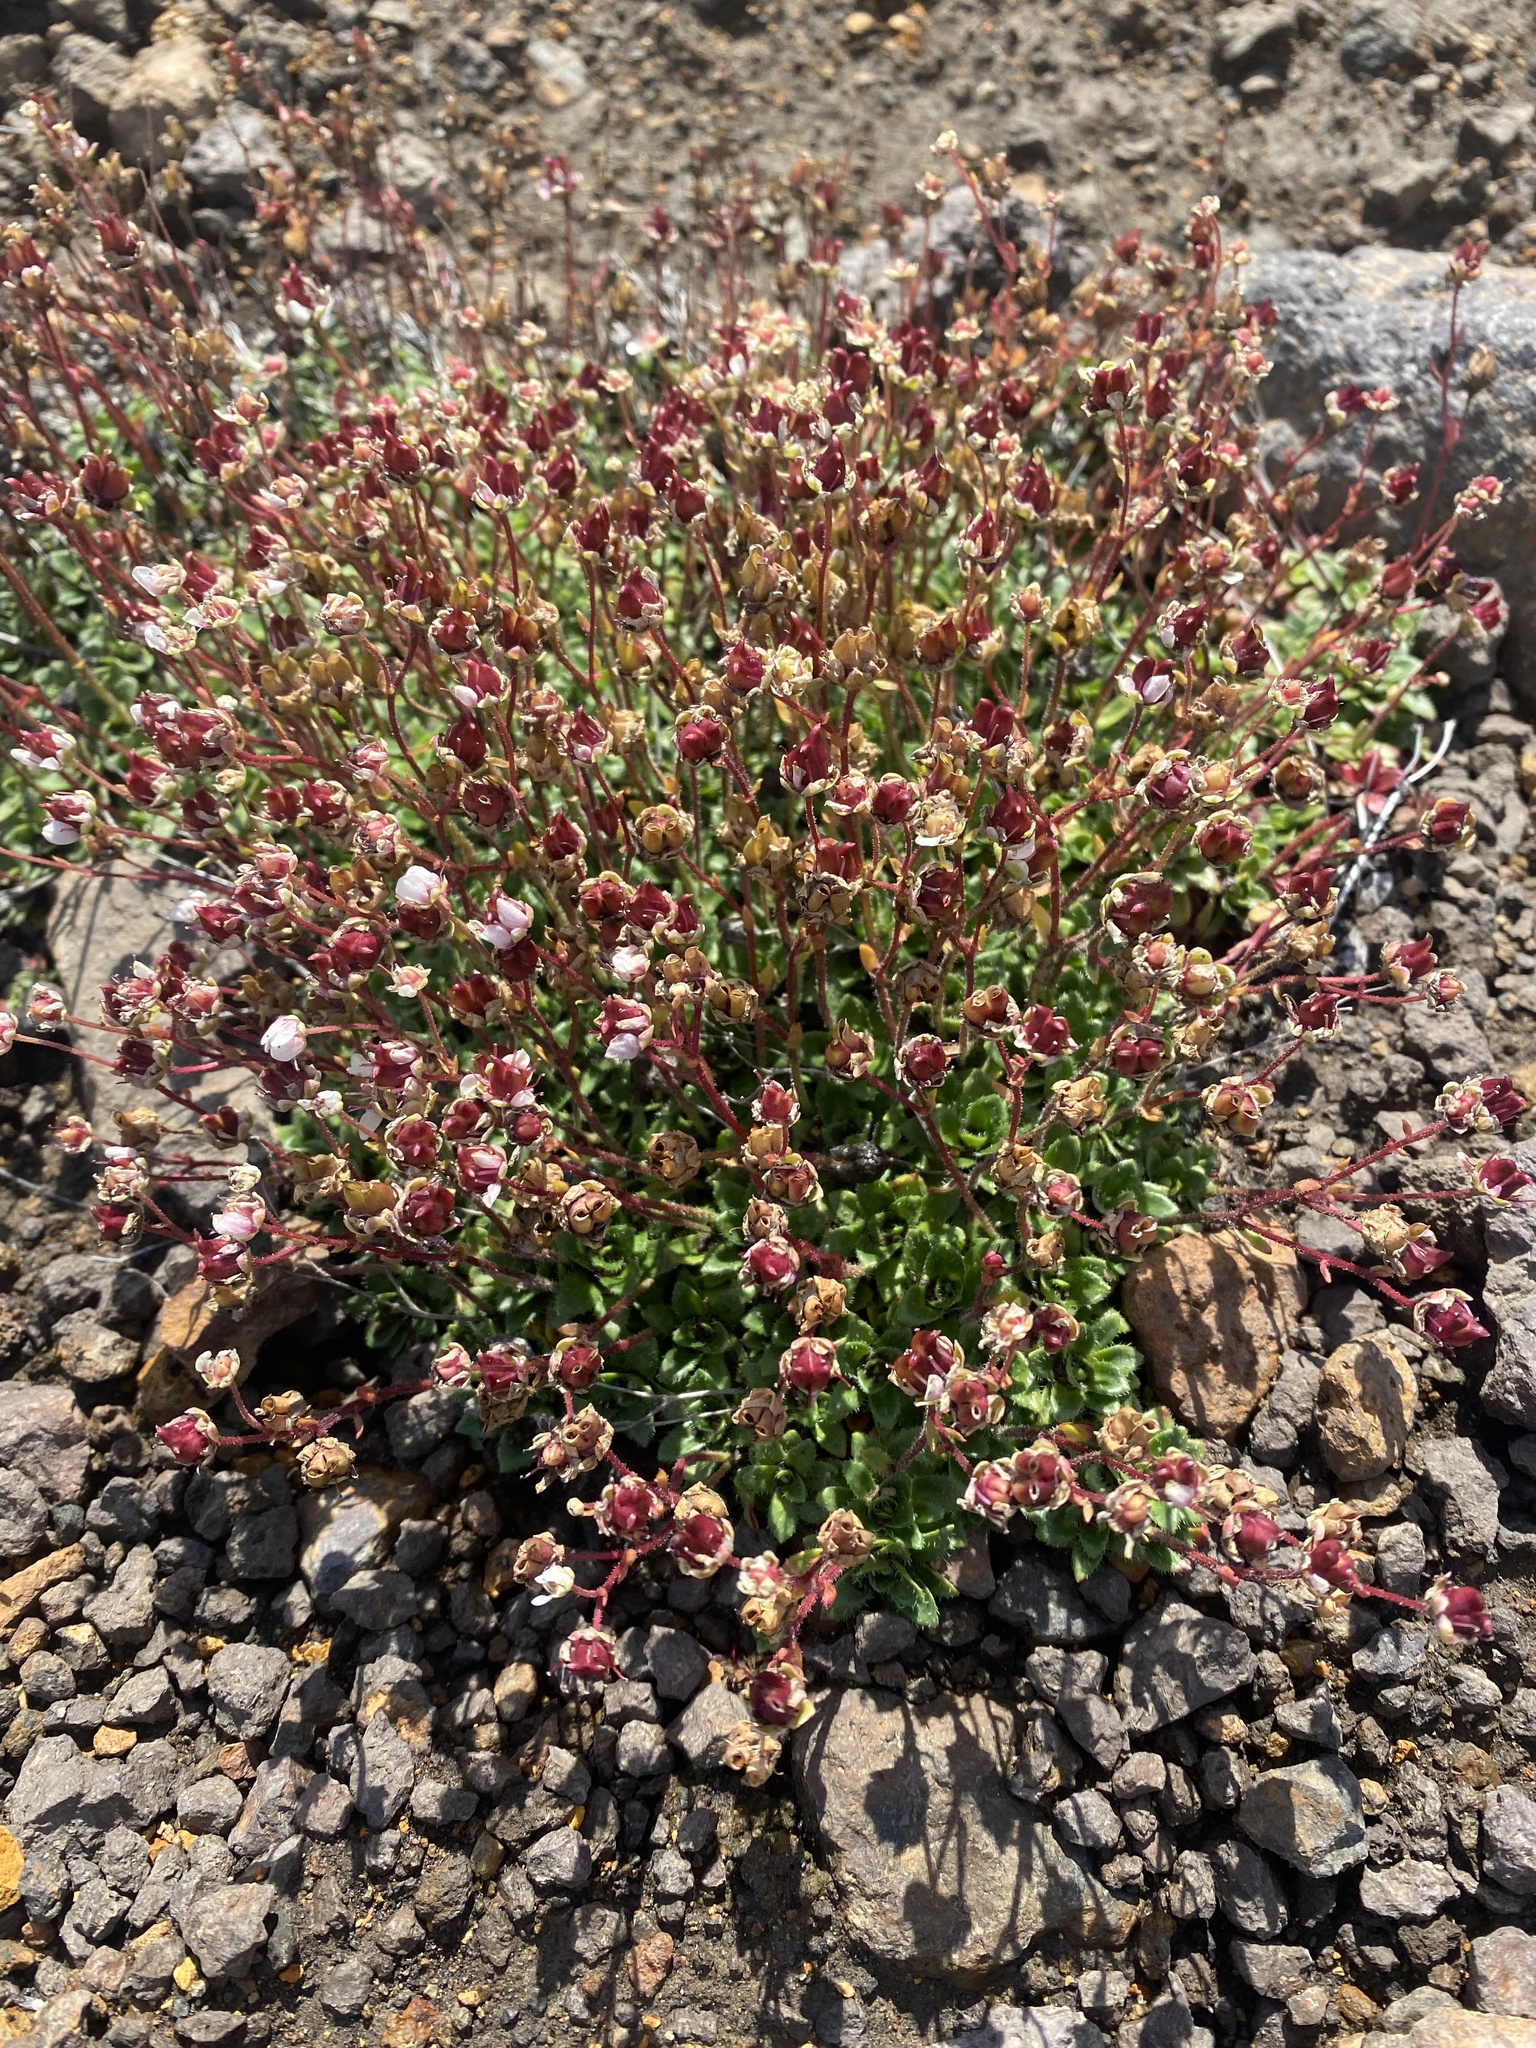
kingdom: Plantae
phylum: Tracheophyta
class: Magnoliopsida
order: Saxifragales
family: Saxifragaceae
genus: Micranthes
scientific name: Micranthes merkii
